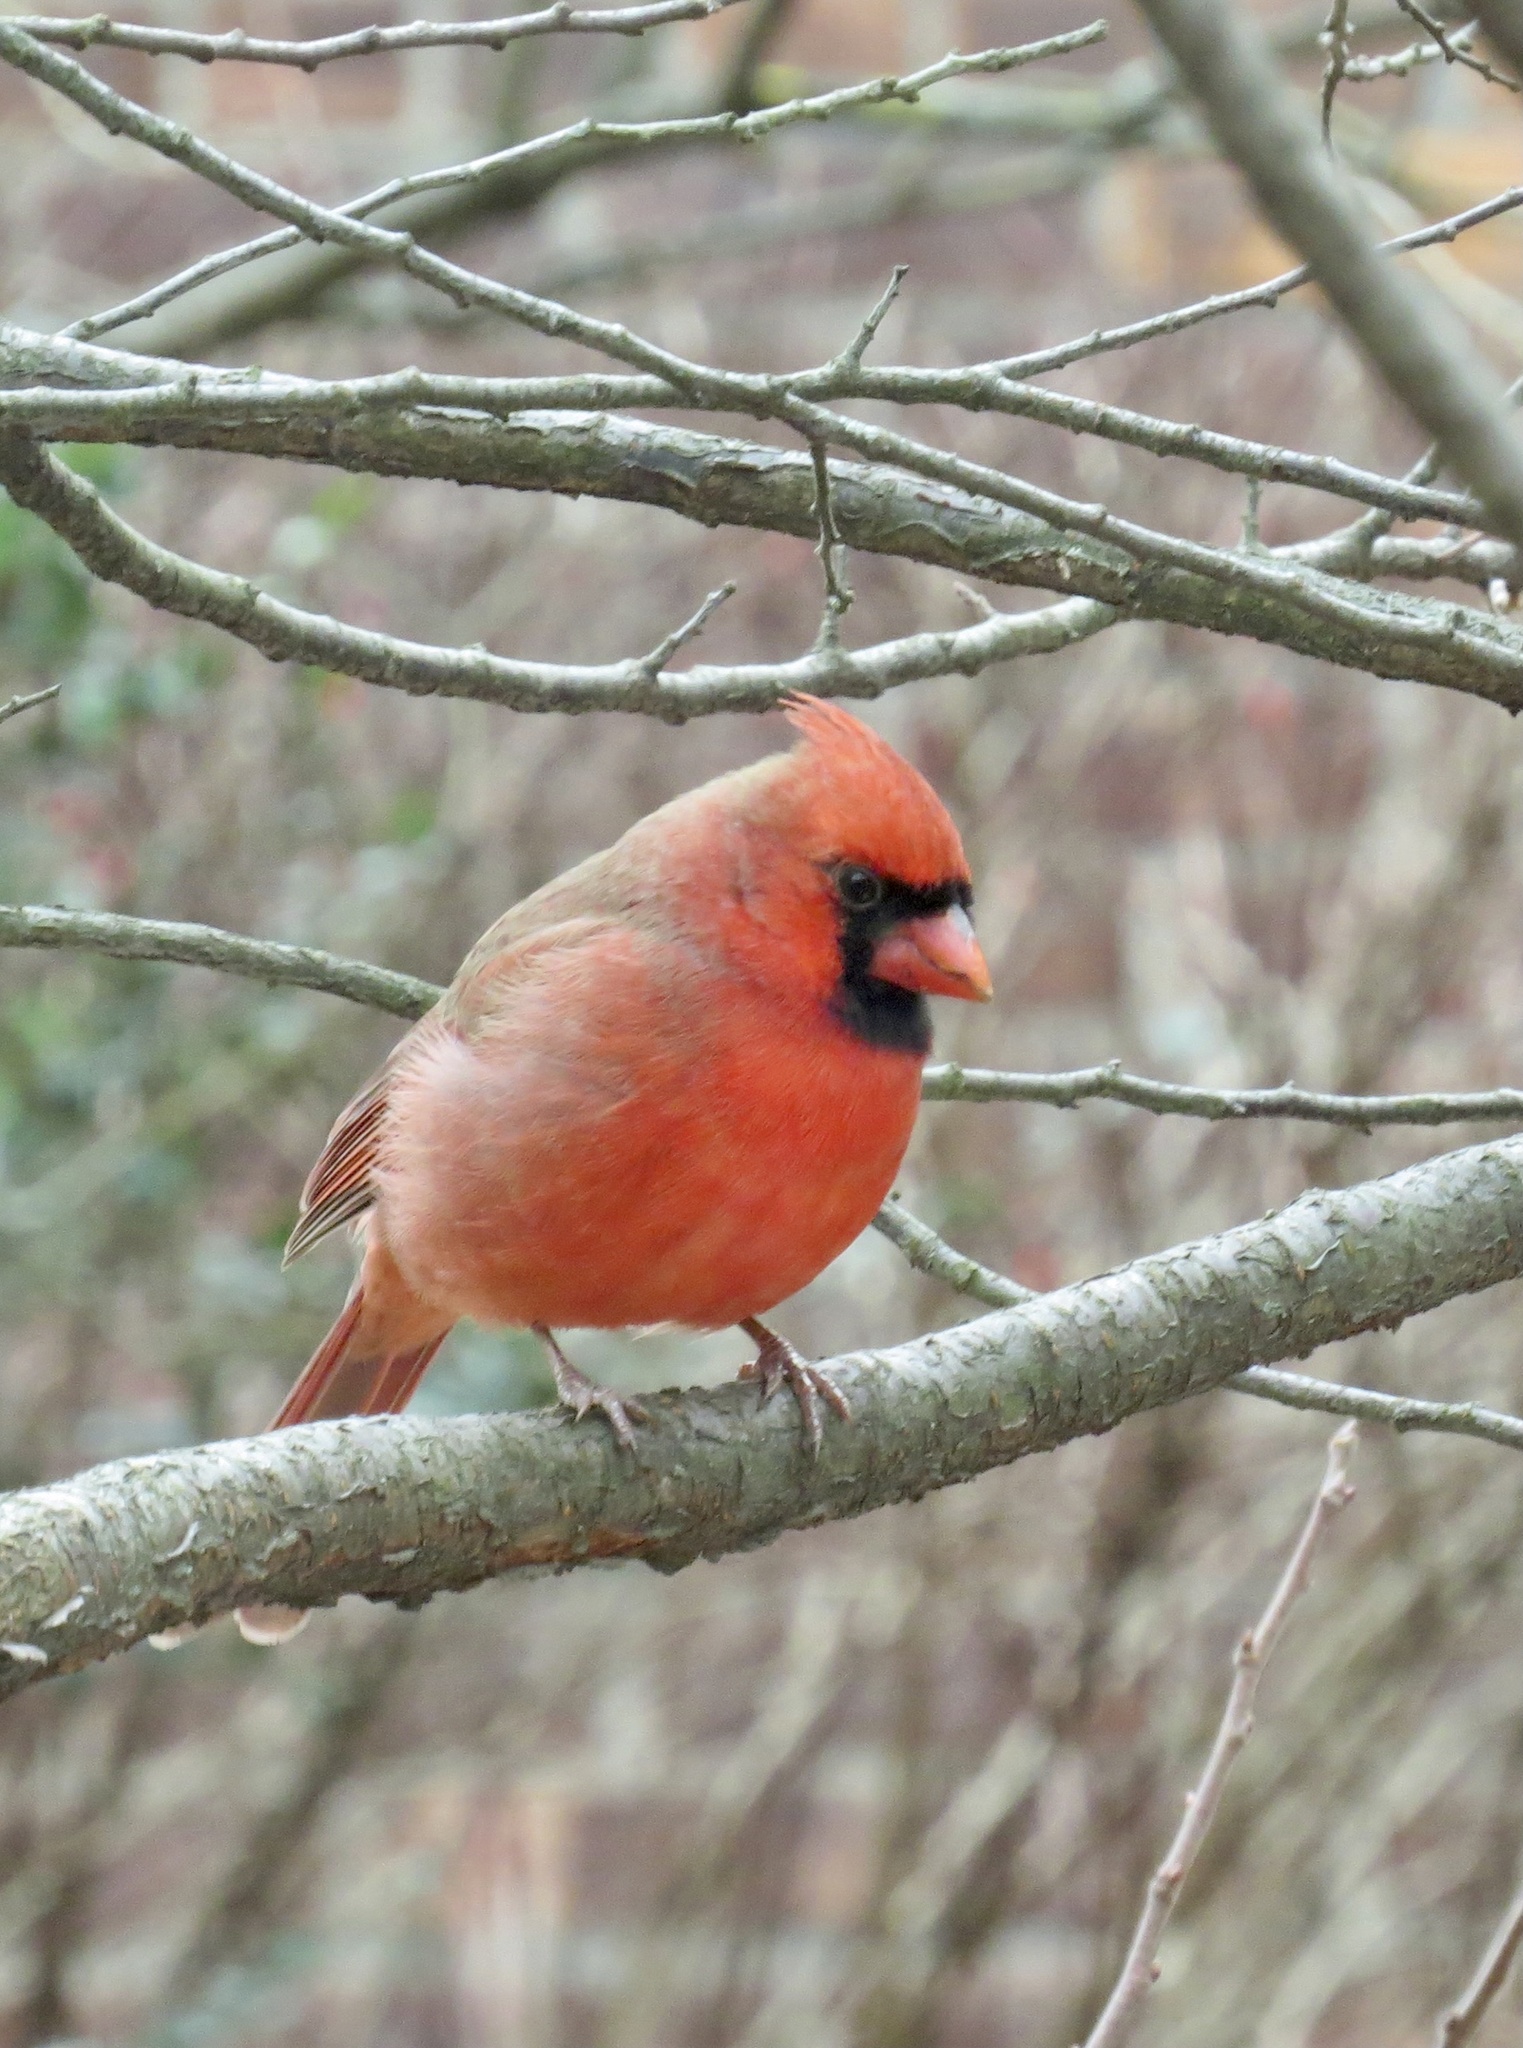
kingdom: Animalia
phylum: Chordata
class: Aves
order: Passeriformes
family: Cardinalidae
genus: Cardinalis
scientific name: Cardinalis cardinalis
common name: Northern cardinal
